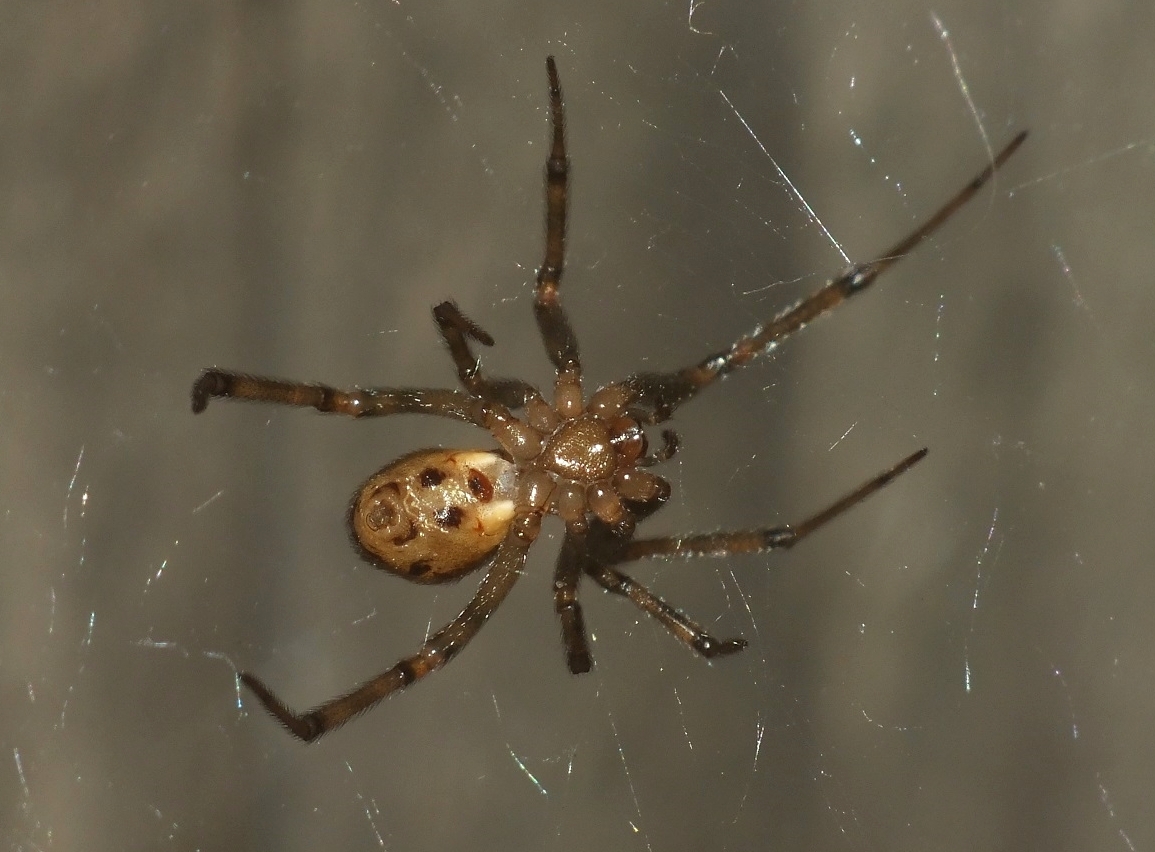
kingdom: Animalia
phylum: Arthropoda
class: Arachnida
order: Araneae
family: Theridiidae
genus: Steatoda
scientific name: Steatoda castanea
